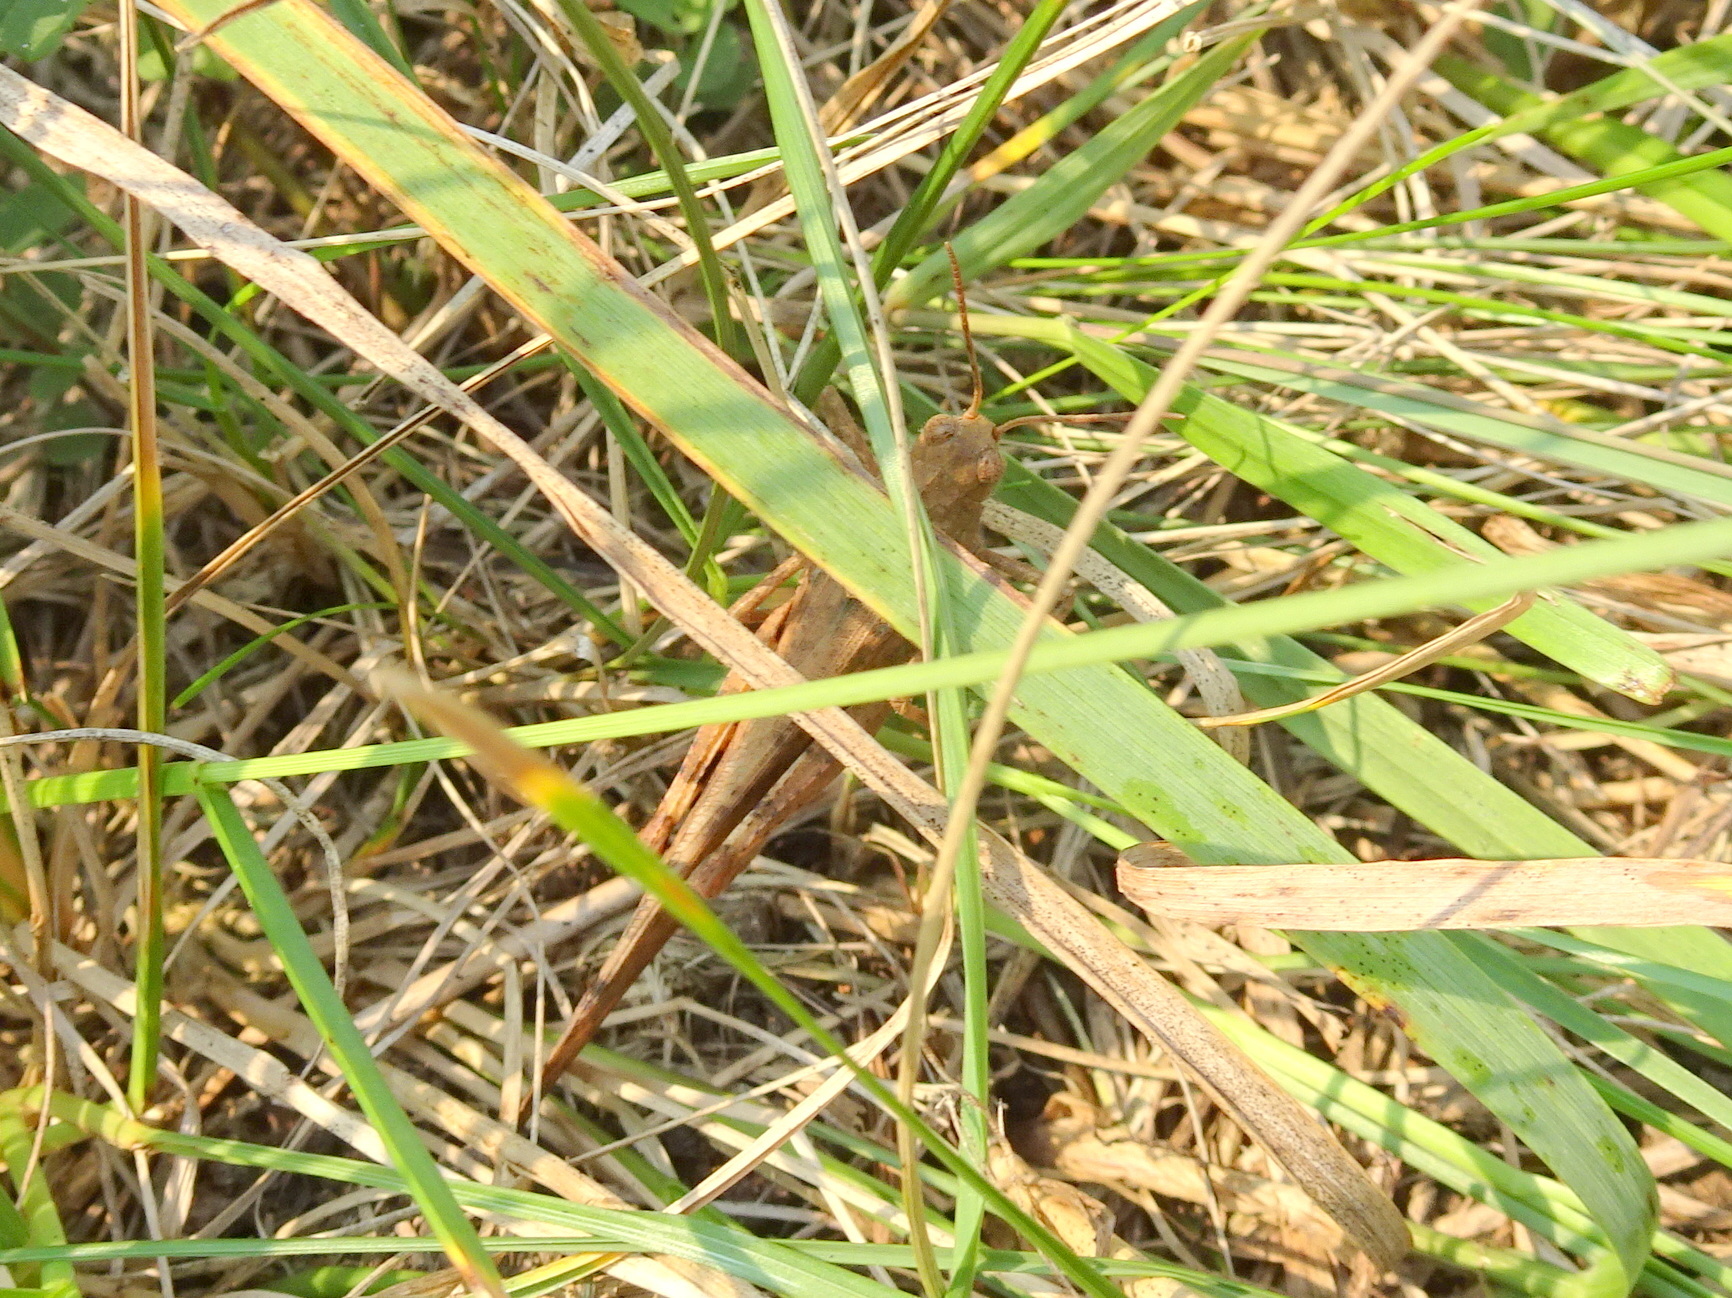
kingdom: Animalia
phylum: Arthropoda
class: Insecta
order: Orthoptera
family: Acrididae
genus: Dissosteira
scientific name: Dissosteira carolina
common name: Carolina grasshopper
